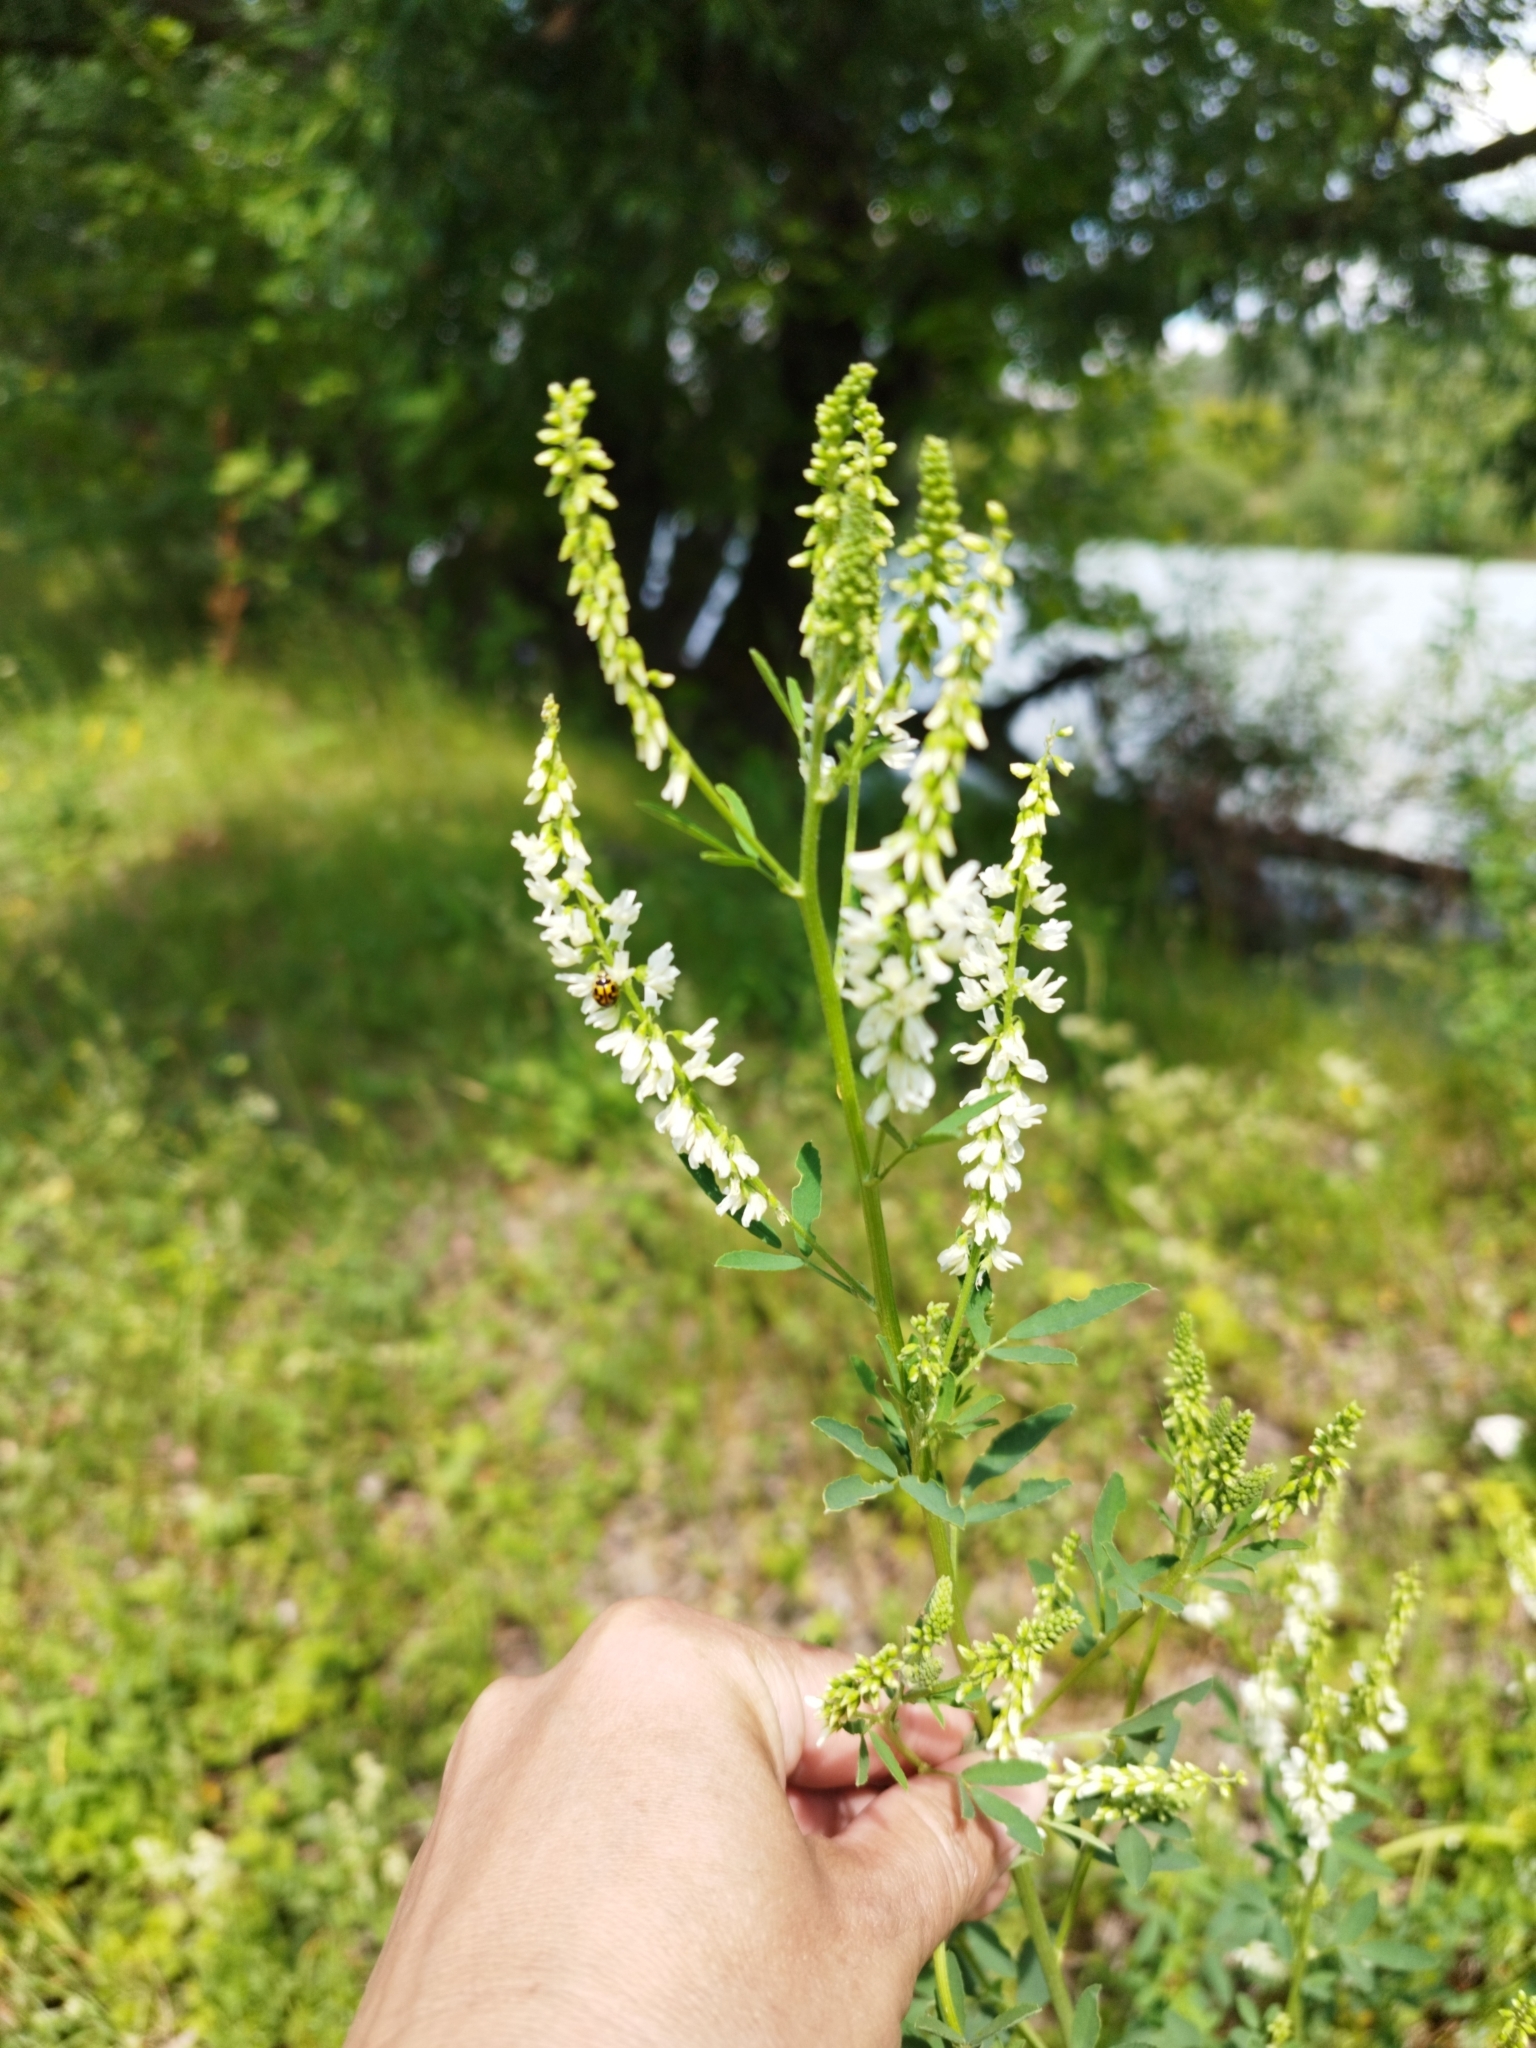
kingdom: Plantae
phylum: Tracheophyta
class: Magnoliopsida
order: Fabales
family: Fabaceae
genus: Melilotus
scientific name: Melilotus albus
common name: White melilot
